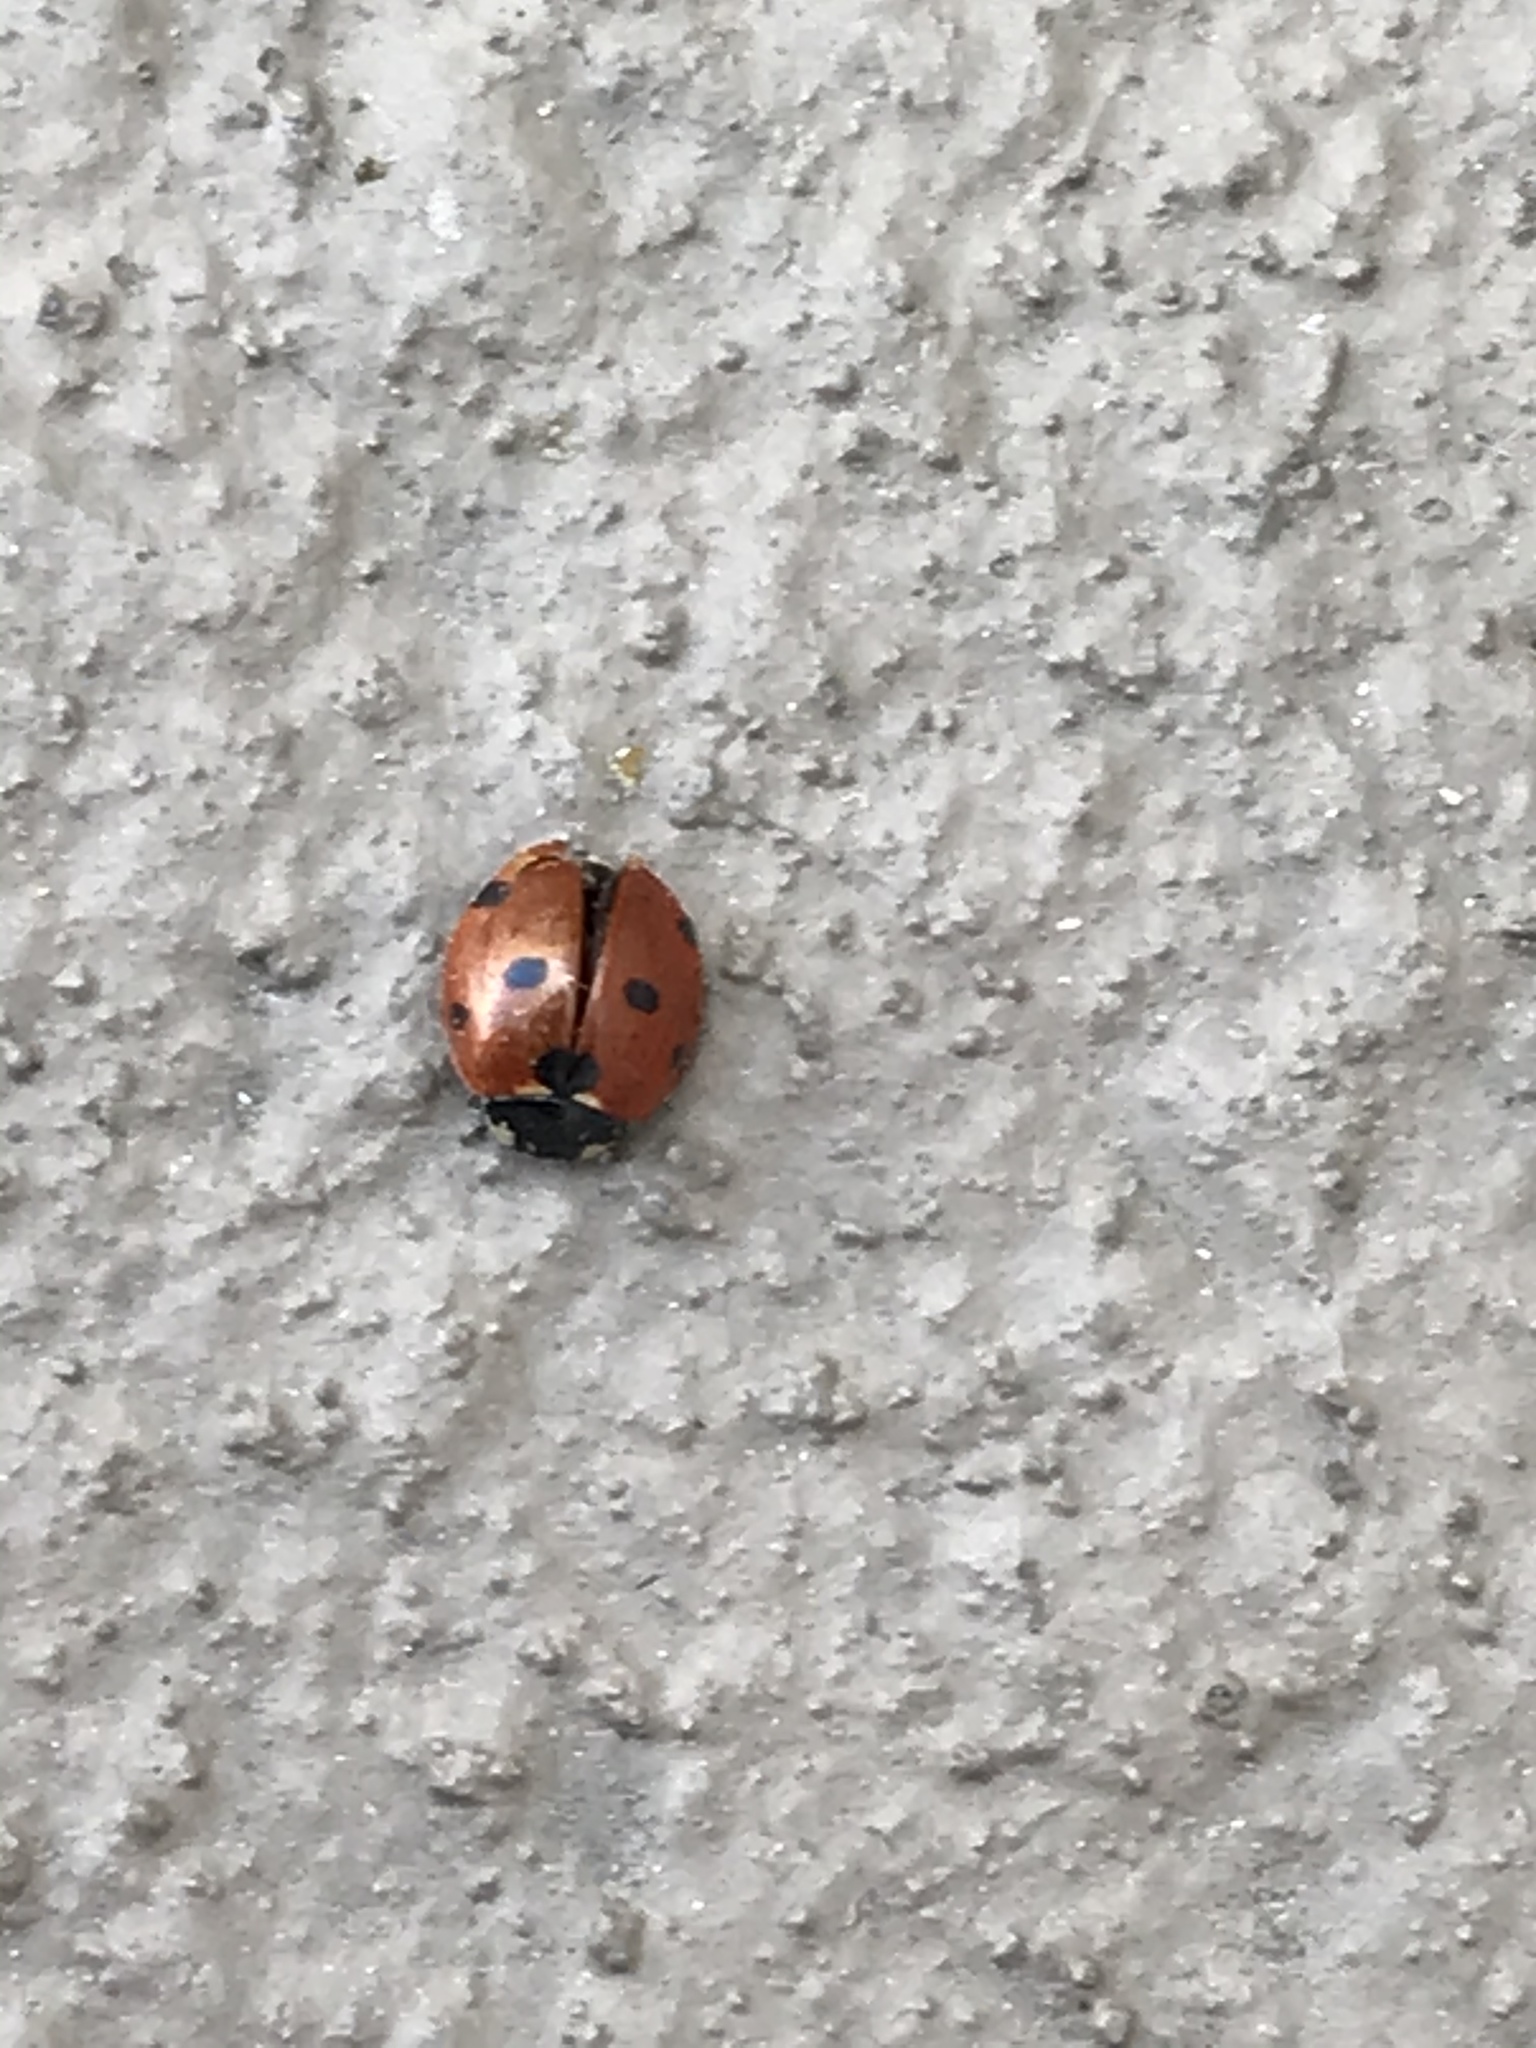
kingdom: Animalia
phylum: Arthropoda
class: Insecta
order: Coleoptera
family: Coccinellidae
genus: Coccinella
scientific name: Coccinella septempunctata
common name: Sevenspotted lady beetle
